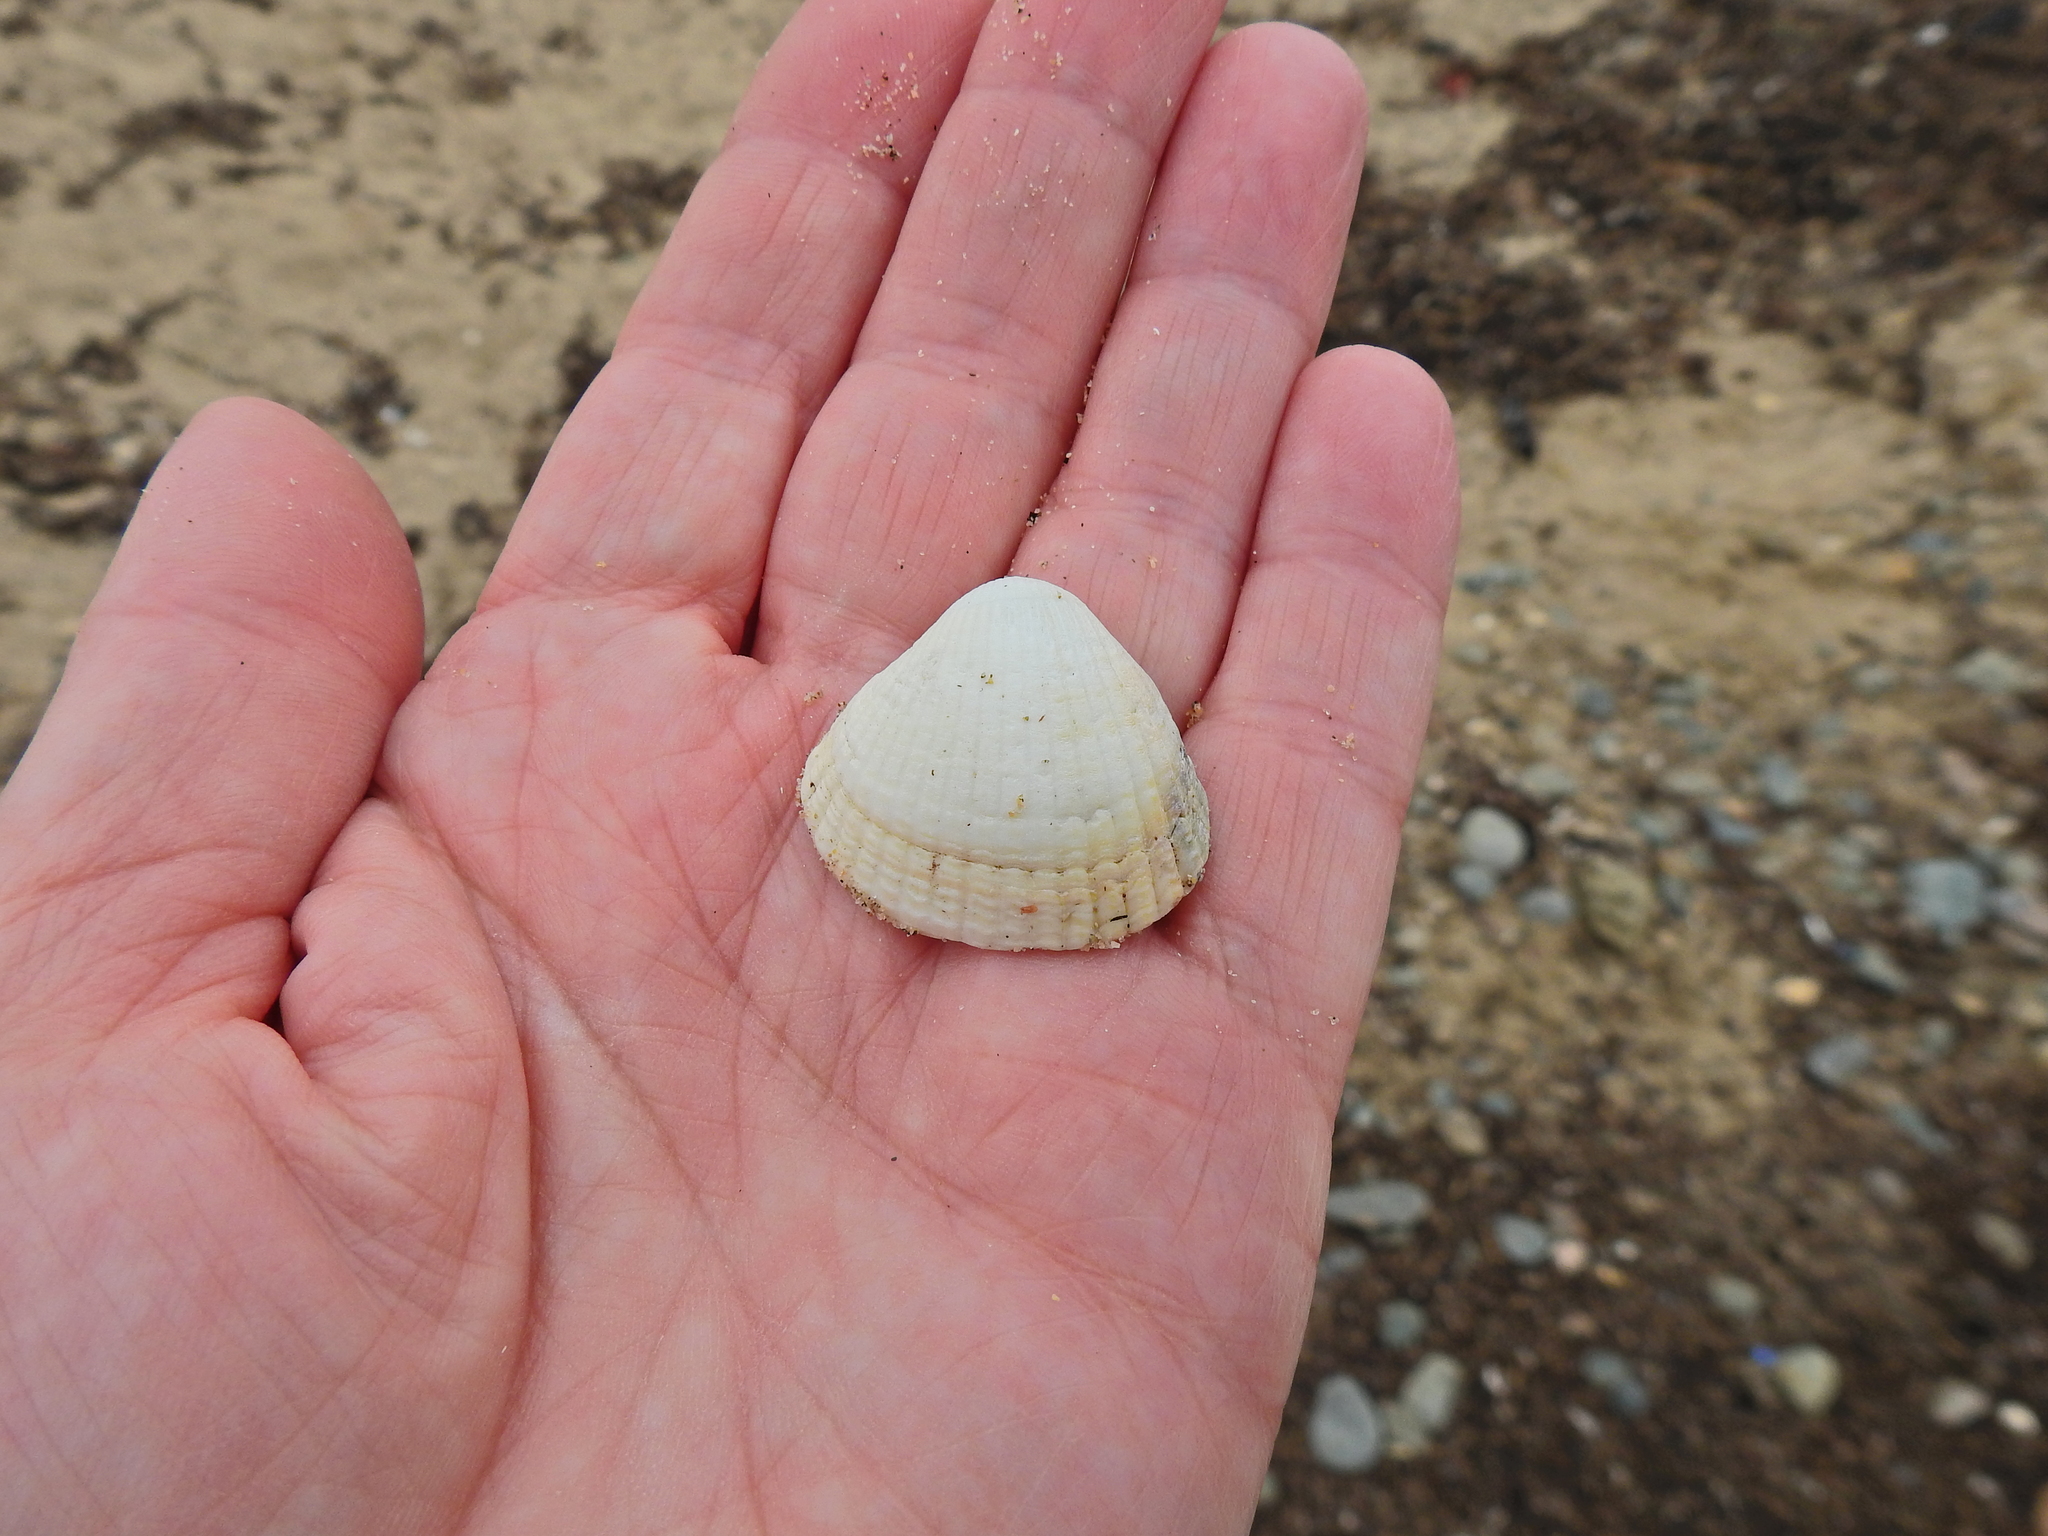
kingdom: Animalia
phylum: Mollusca
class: Bivalvia
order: Cardiida
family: Cardiidae
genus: Cerastoderma
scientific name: Cerastoderma edule
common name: Common cockle
